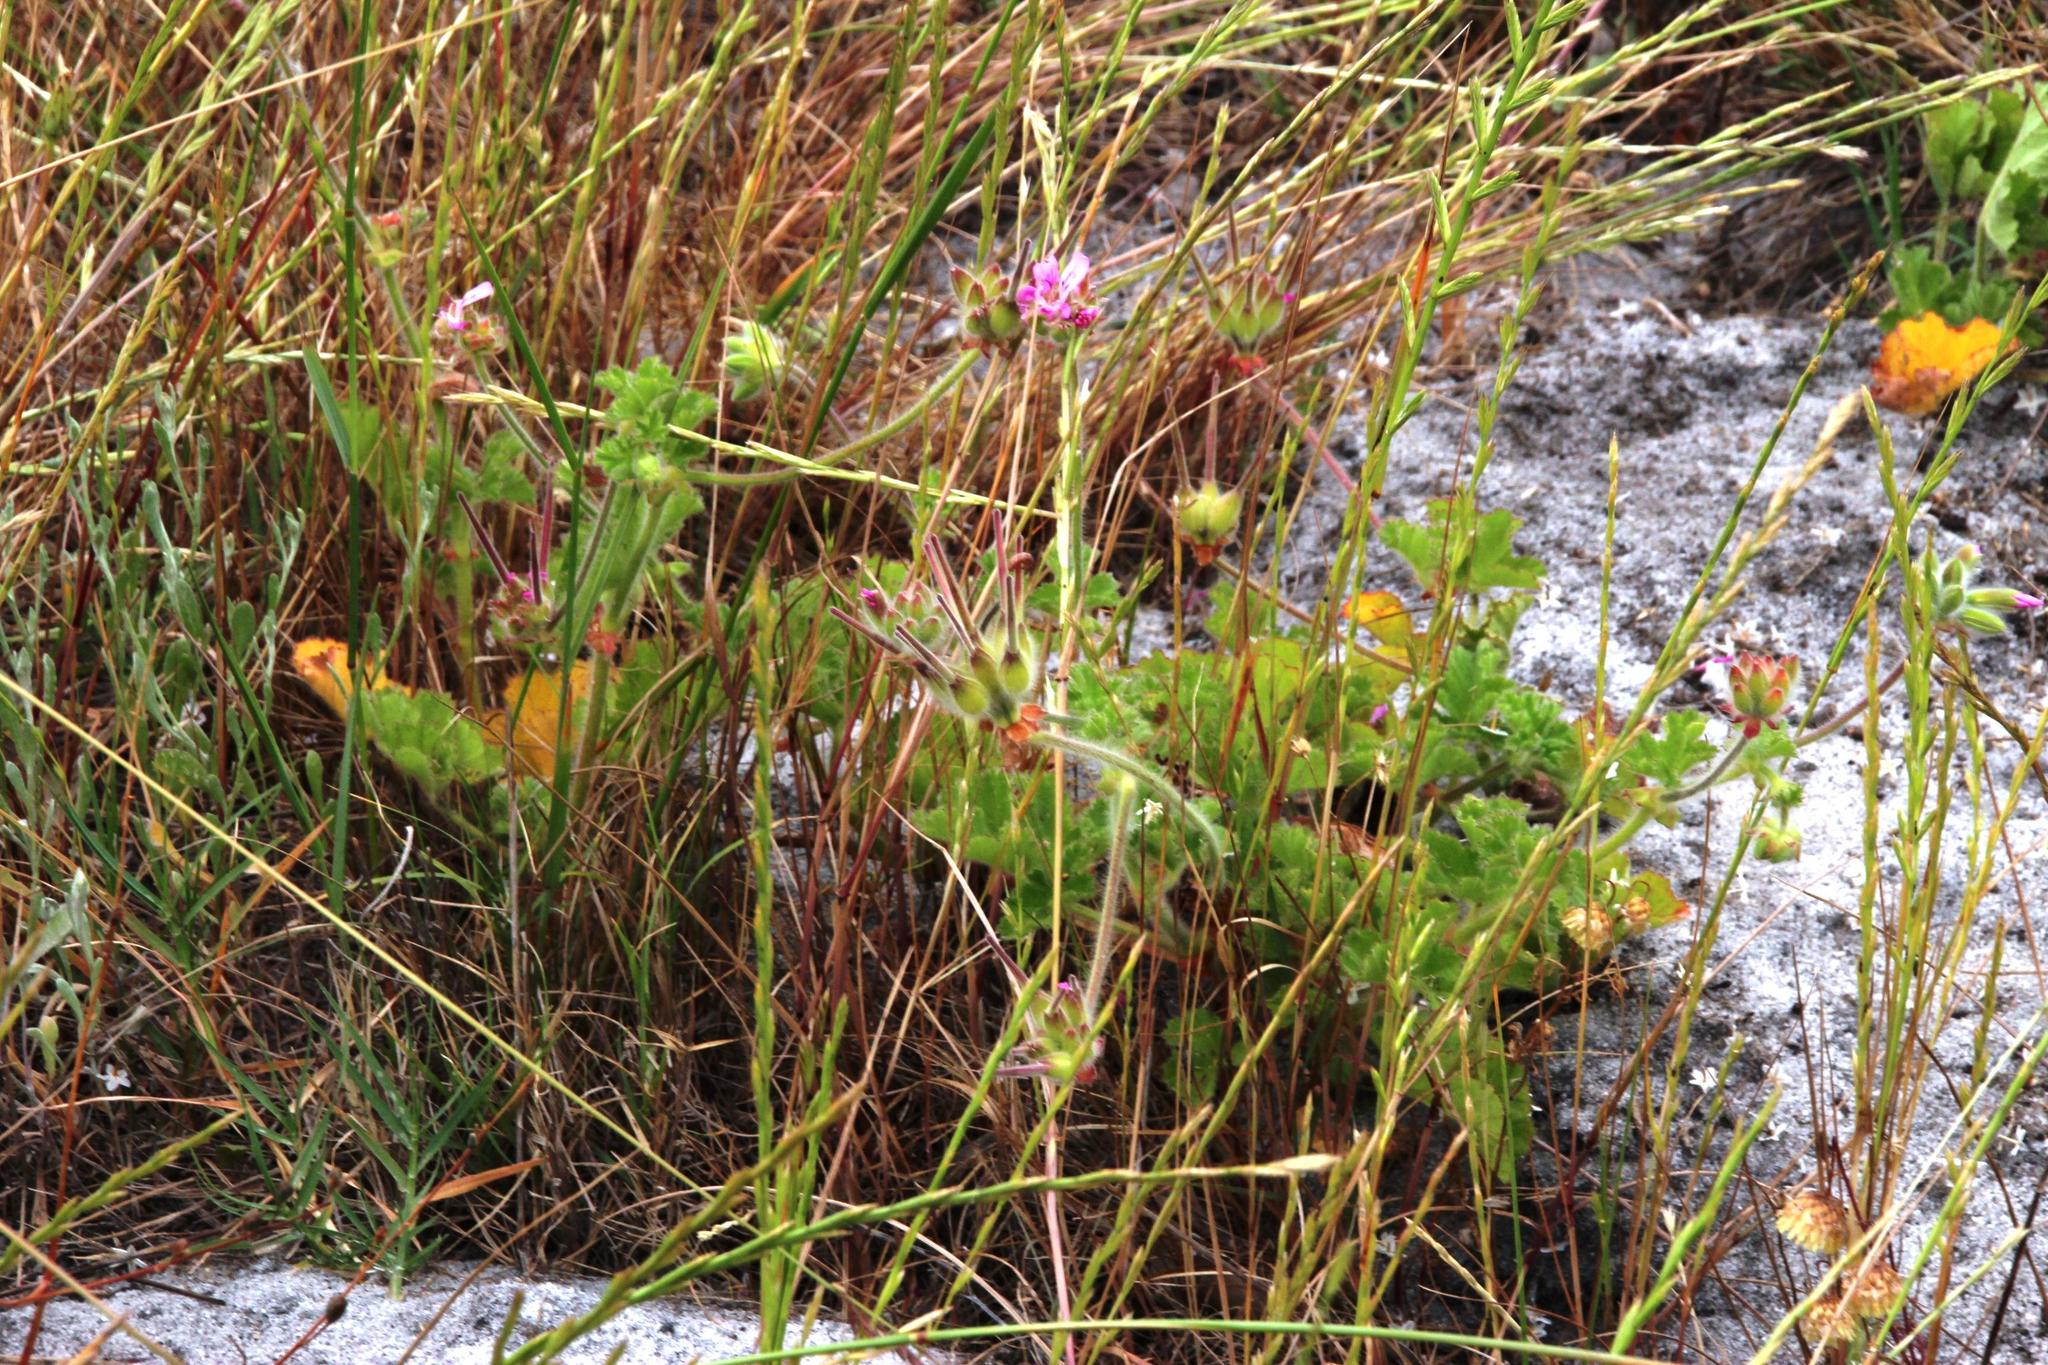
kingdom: Plantae
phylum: Tracheophyta
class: Magnoliopsida
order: Geraniales
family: Geraniaceae
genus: Pelargonium
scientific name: Pelargonium capitatum
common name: Rose scented geranium
